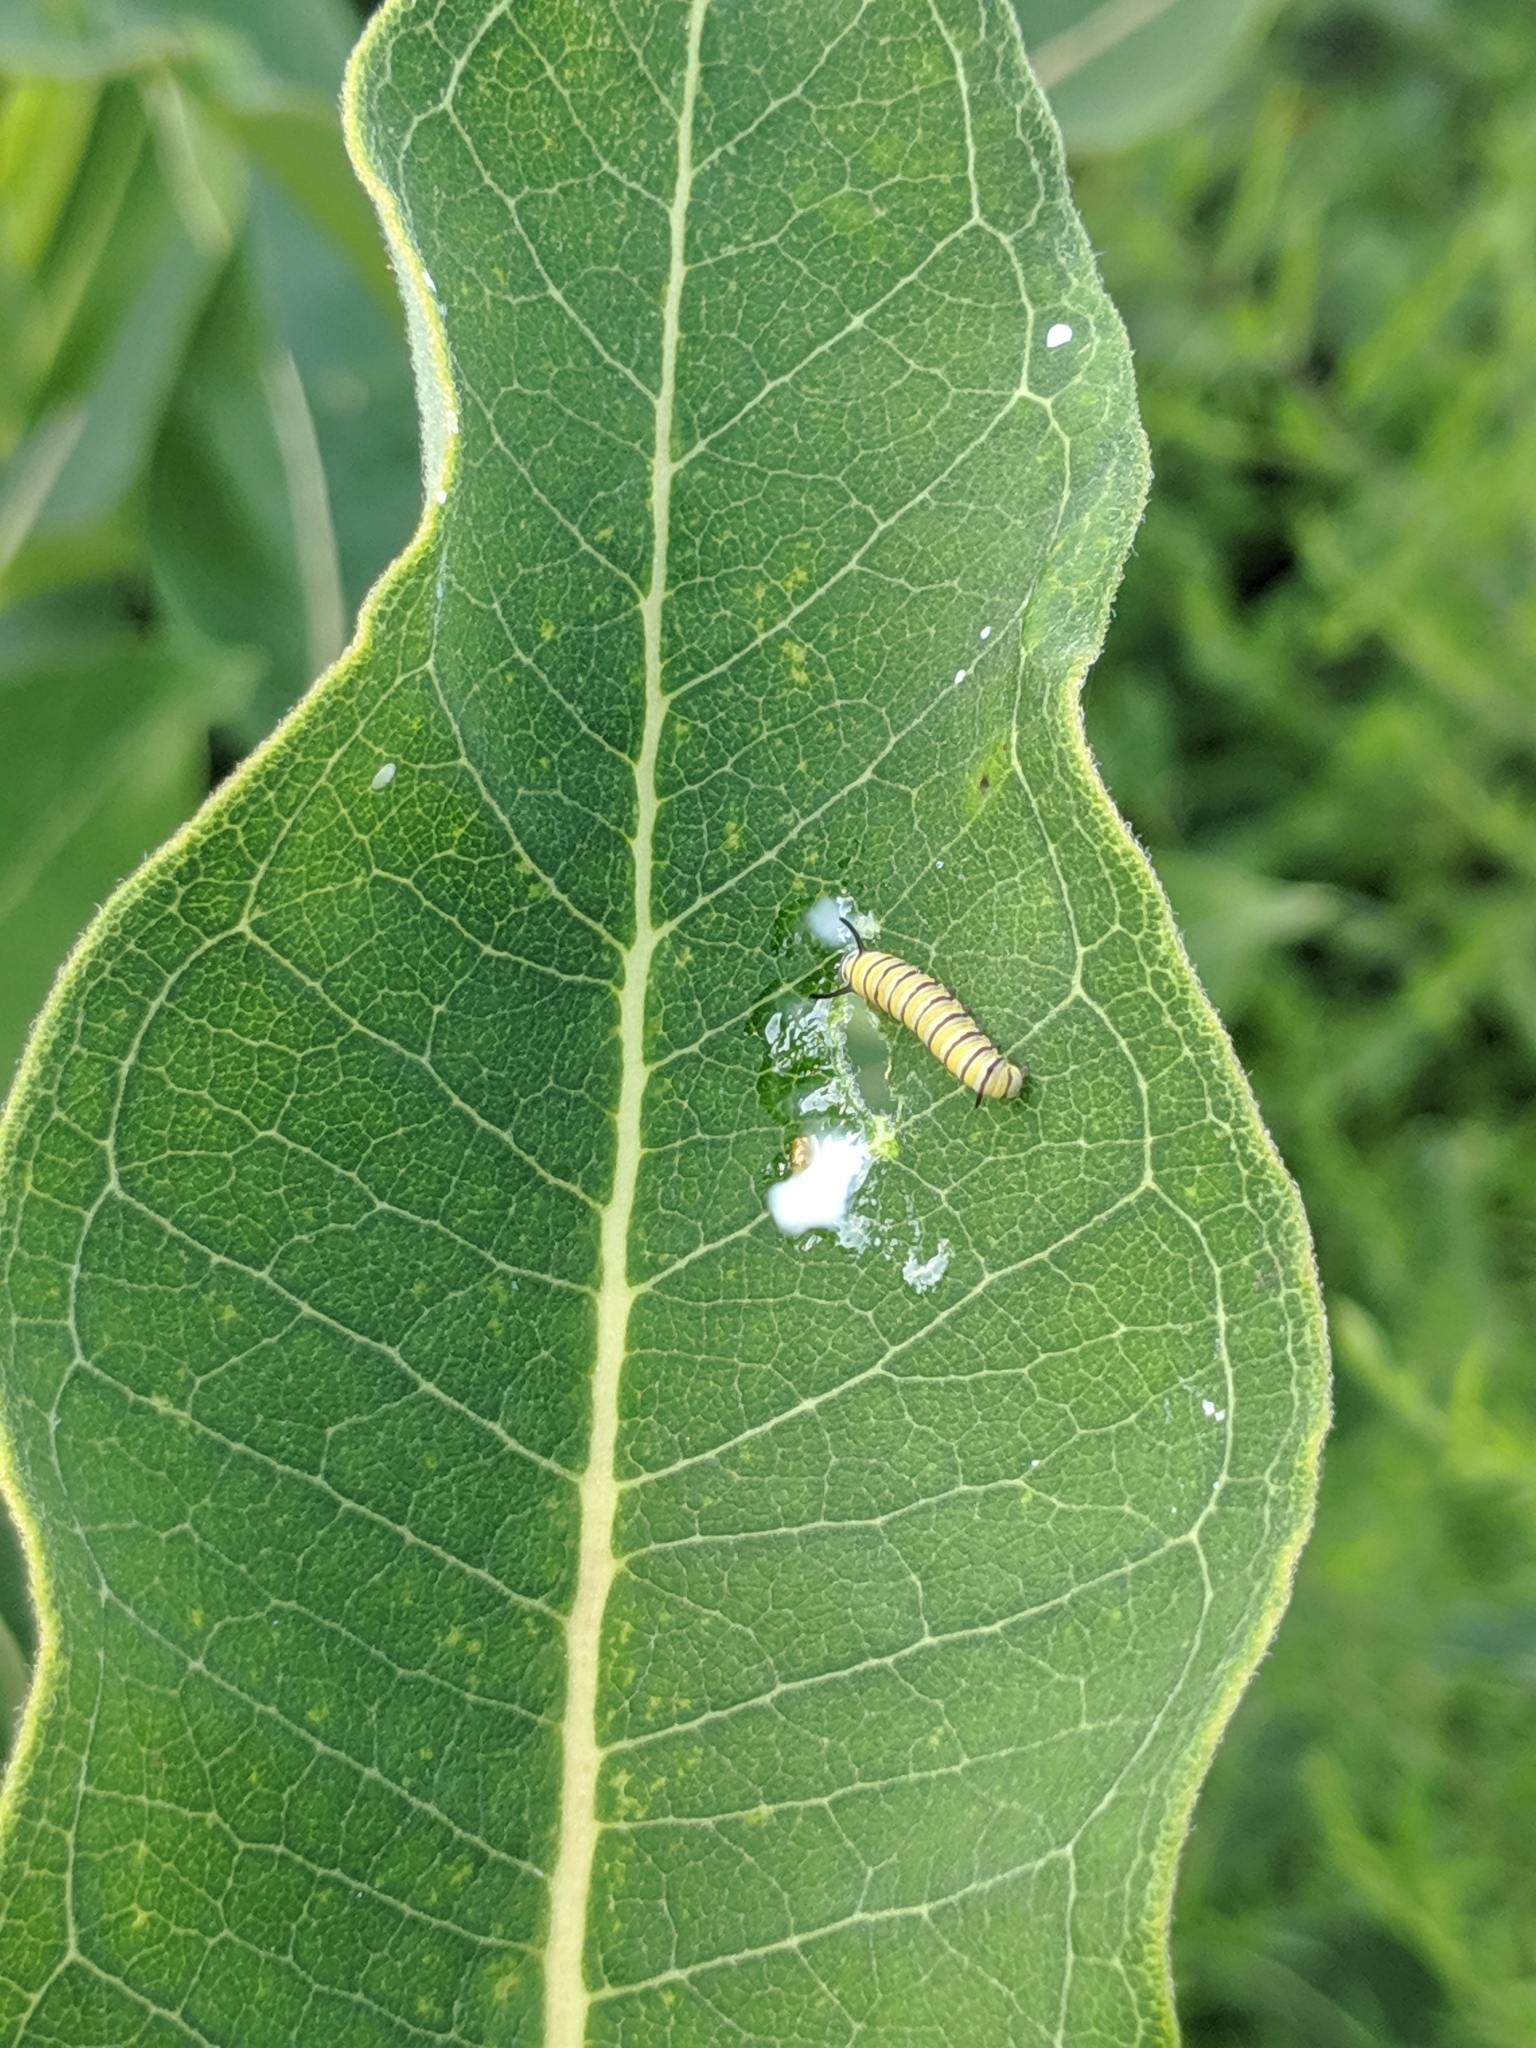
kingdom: Animalia
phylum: Arthropoda
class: Insecta
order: Lepidoptera
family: Nymphalidae
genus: Danaus
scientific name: Danaus plexippus
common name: Monarch
